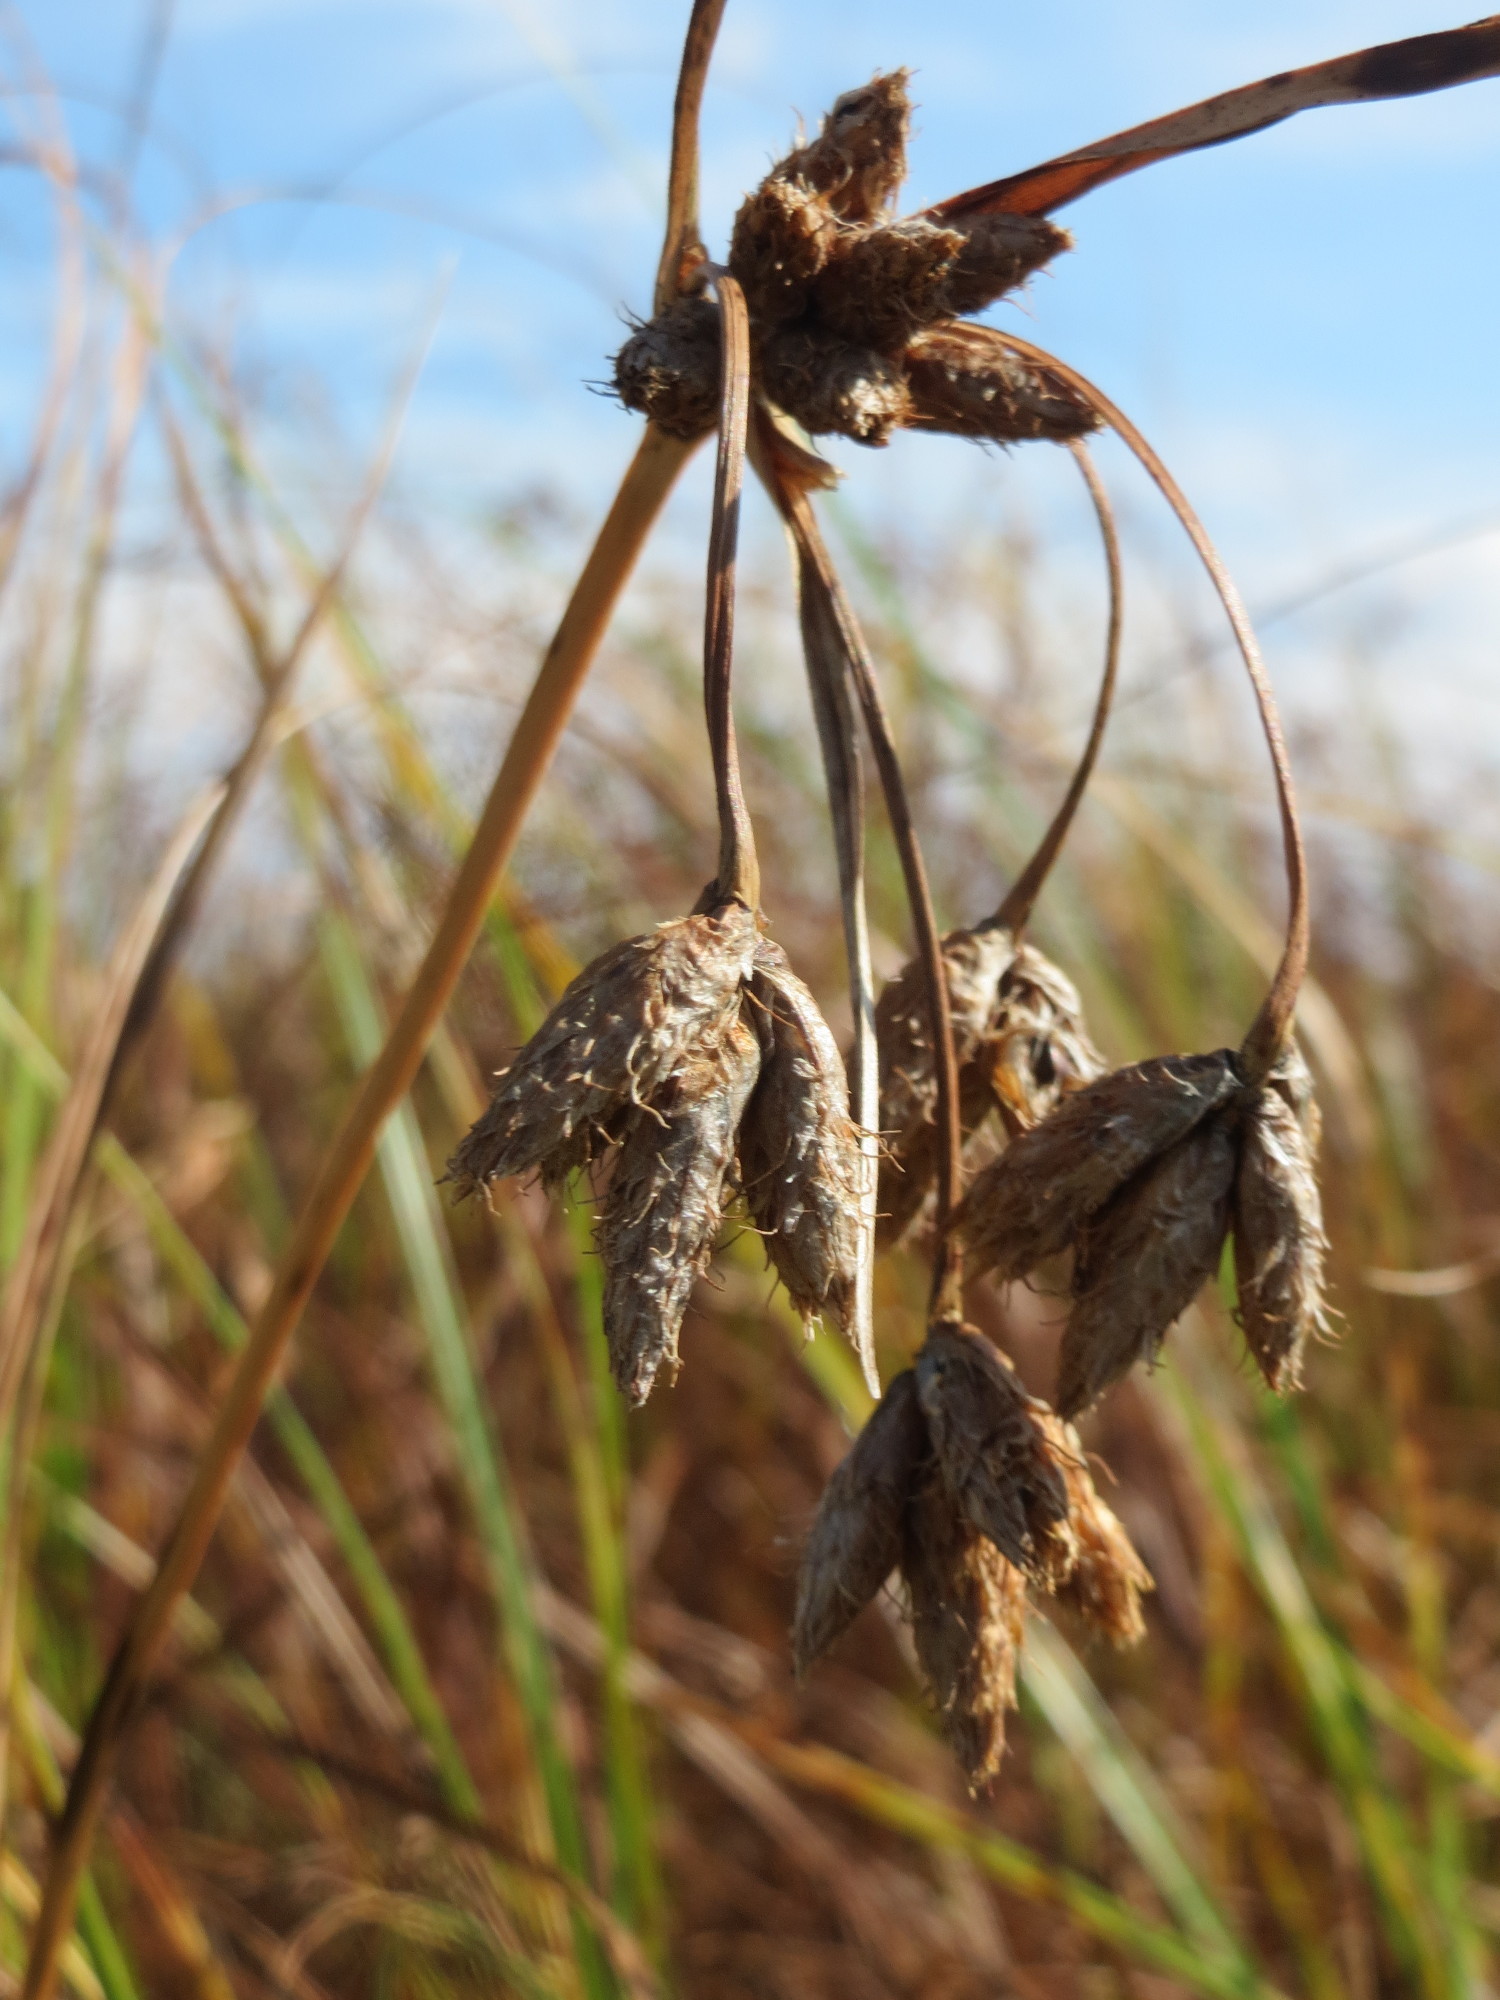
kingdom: Plantae
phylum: Tracheophyta
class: Liliopsida
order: Poales
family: Cyperaceae
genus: Bolboschoenus
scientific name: Bolboschoenus laticarpus
